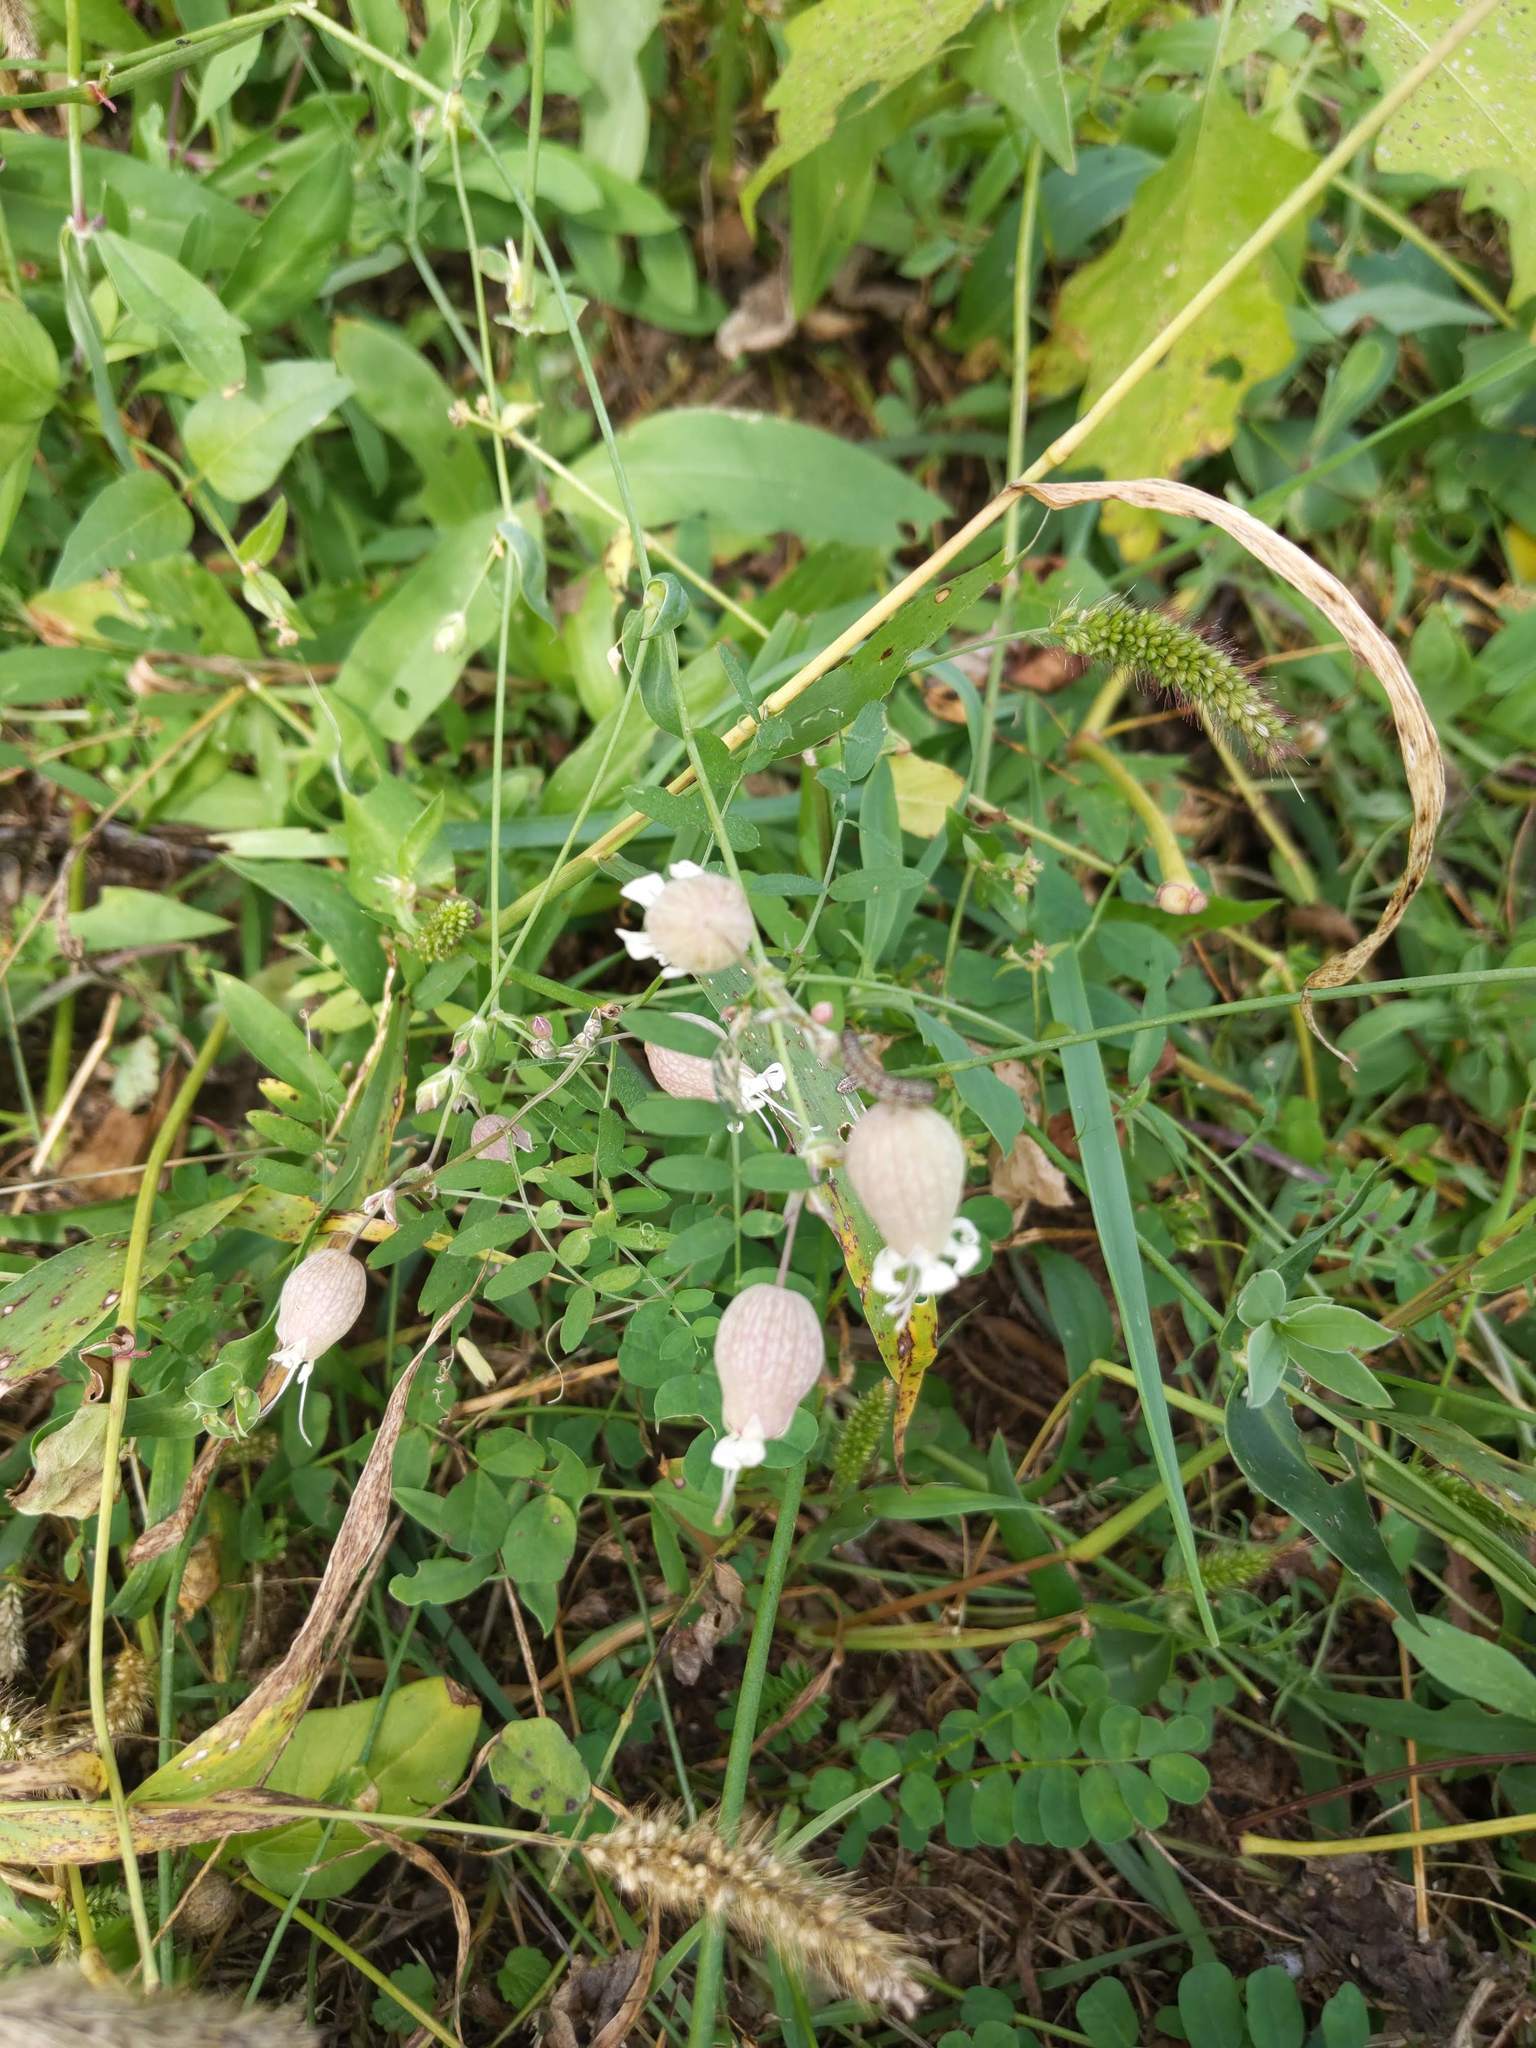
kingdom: Plantae
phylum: Tracheophyta
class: Magnoliopsida
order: Caryophyllales
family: Caryophyllaceae
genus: Silene
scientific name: Silene vulgaris
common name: Bladder campion
